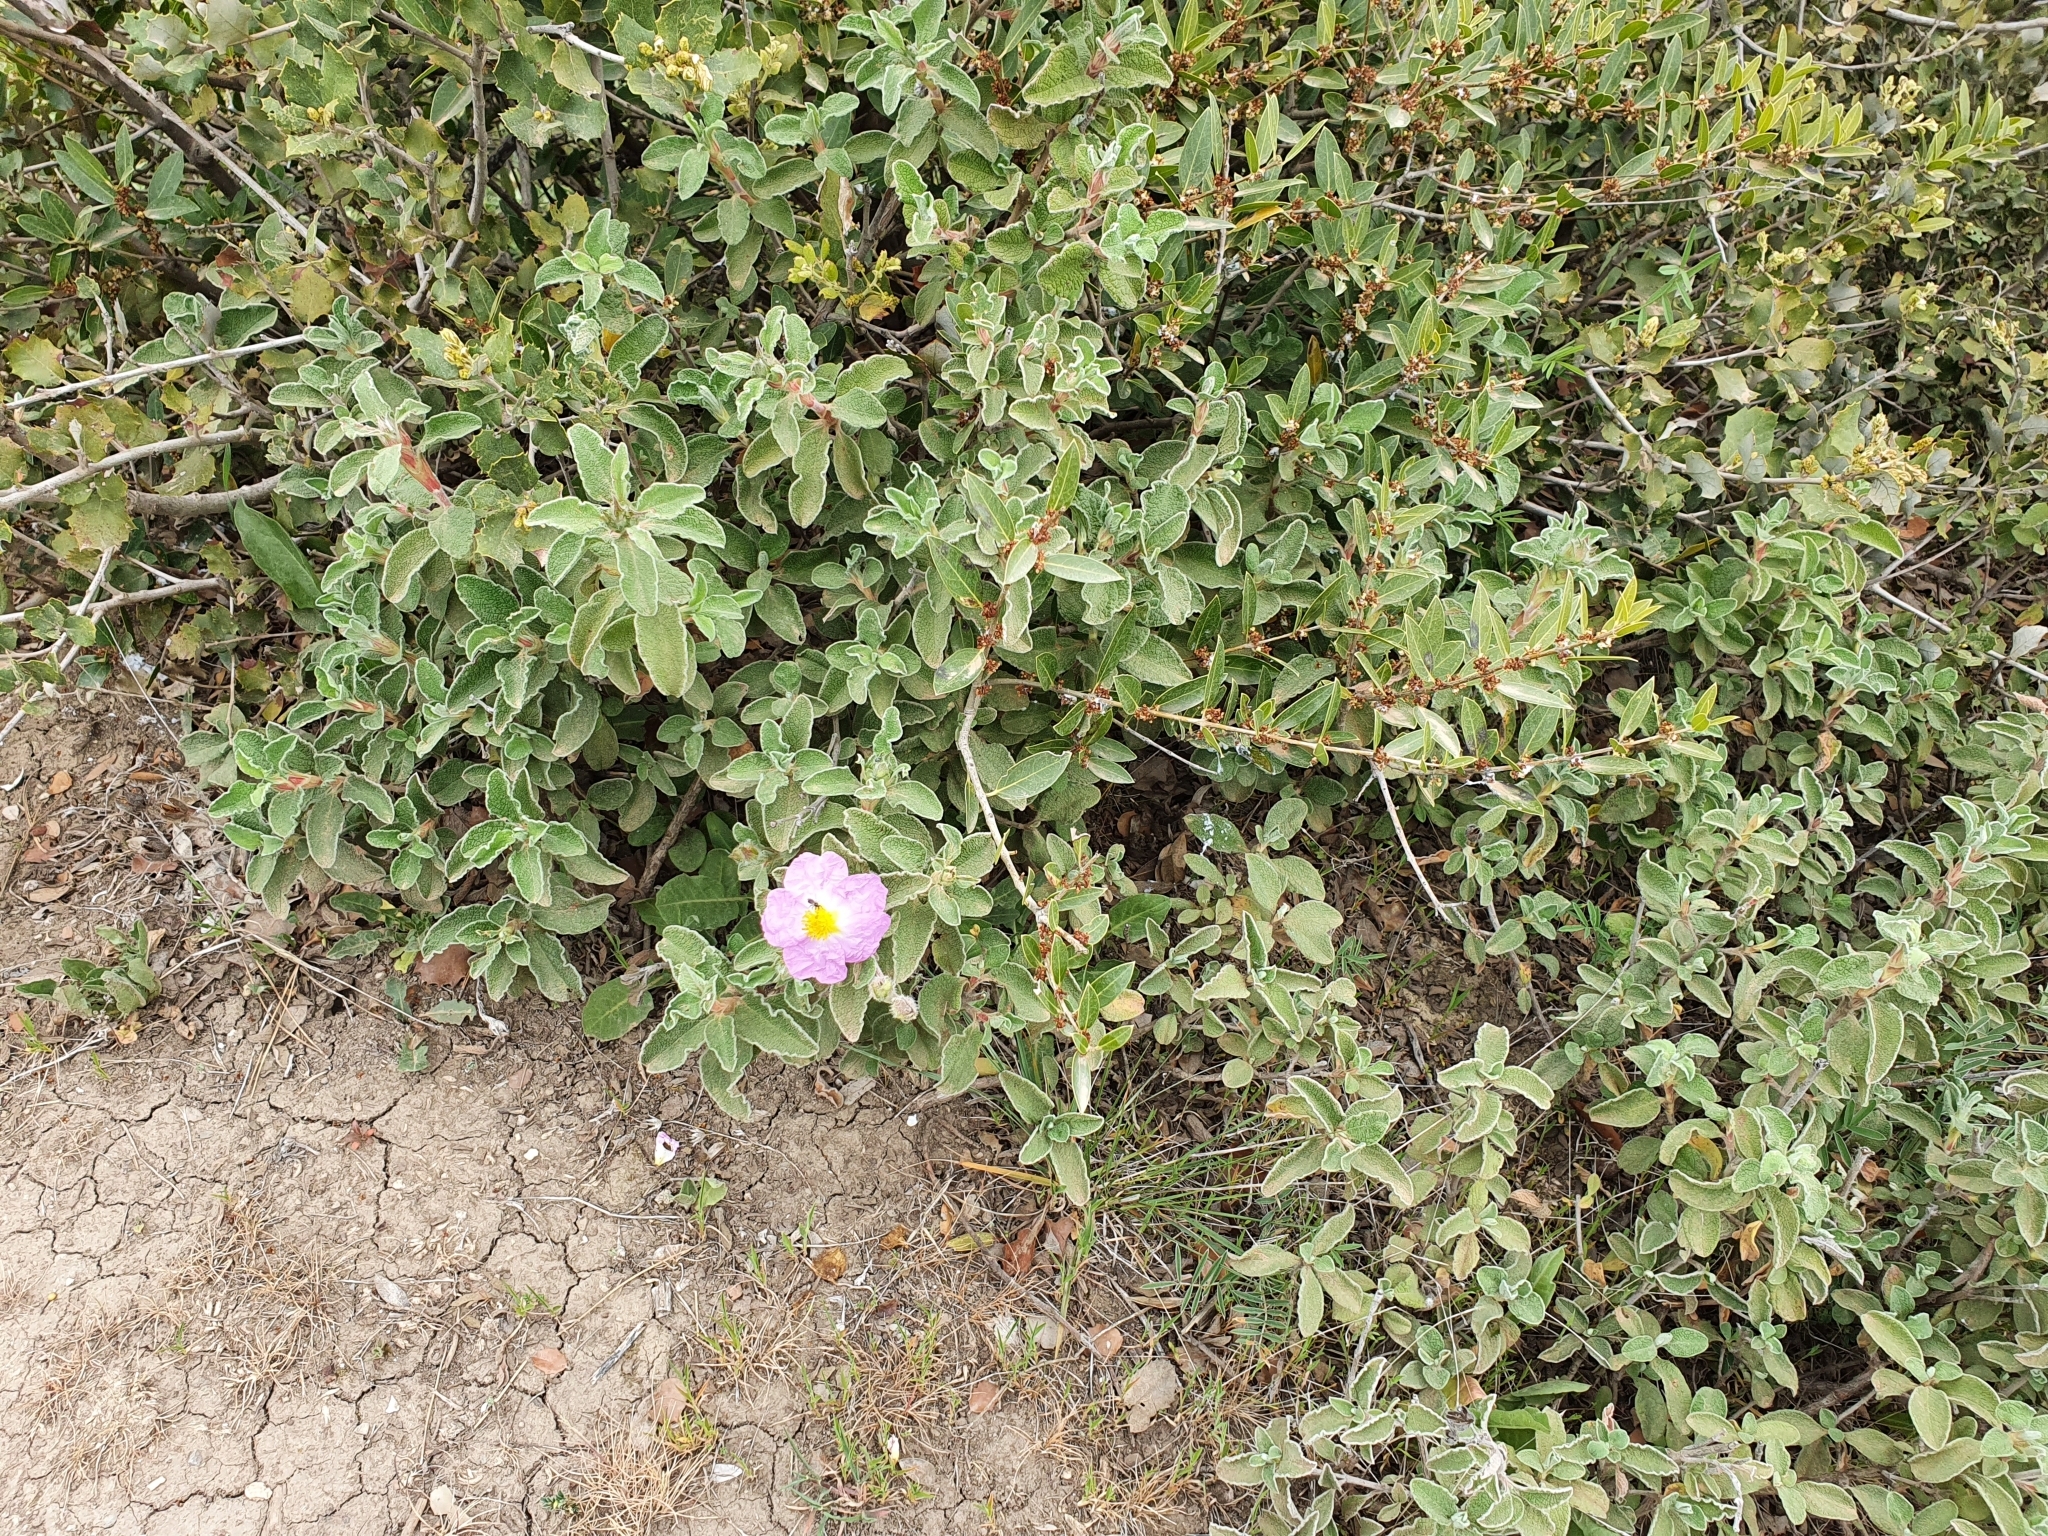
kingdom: Plantae
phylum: Tracheophyta
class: Magnoliopsida
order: Malvales
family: Cistaceae
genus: Cistus
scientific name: Cistus creticus
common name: Cretan rockrose
